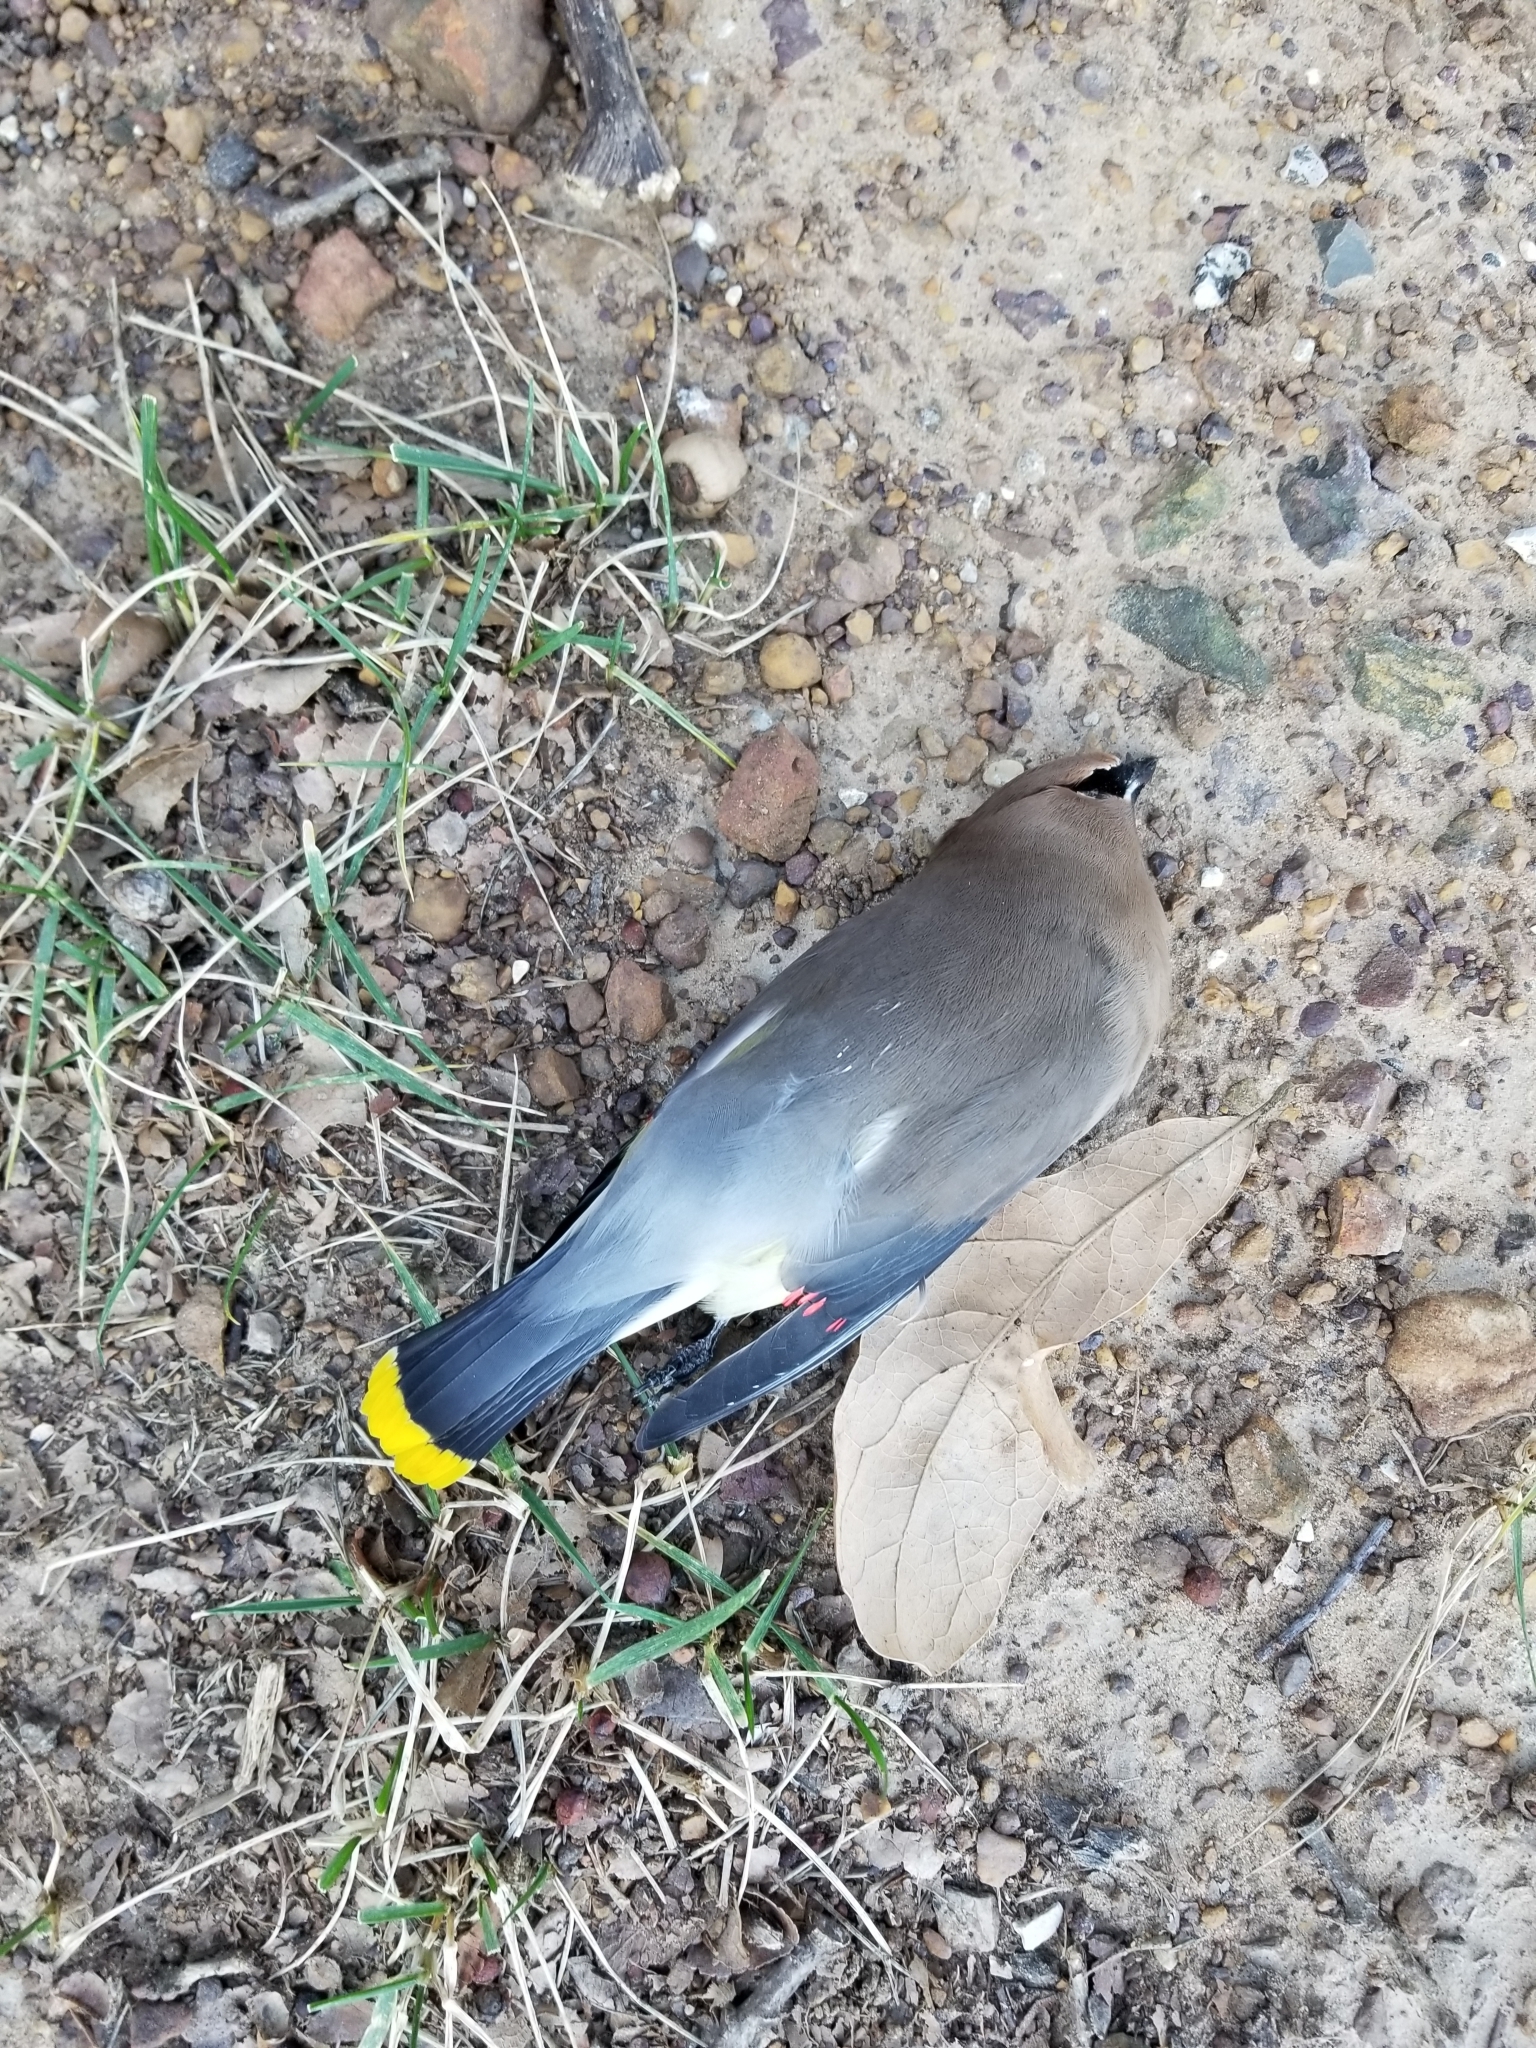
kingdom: Animalia
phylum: Chordata
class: Aves
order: Passeriformes
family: Bombycillidae
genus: Bombycilla
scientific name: Bombycilla cedrorum
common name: Cedar waxwing
